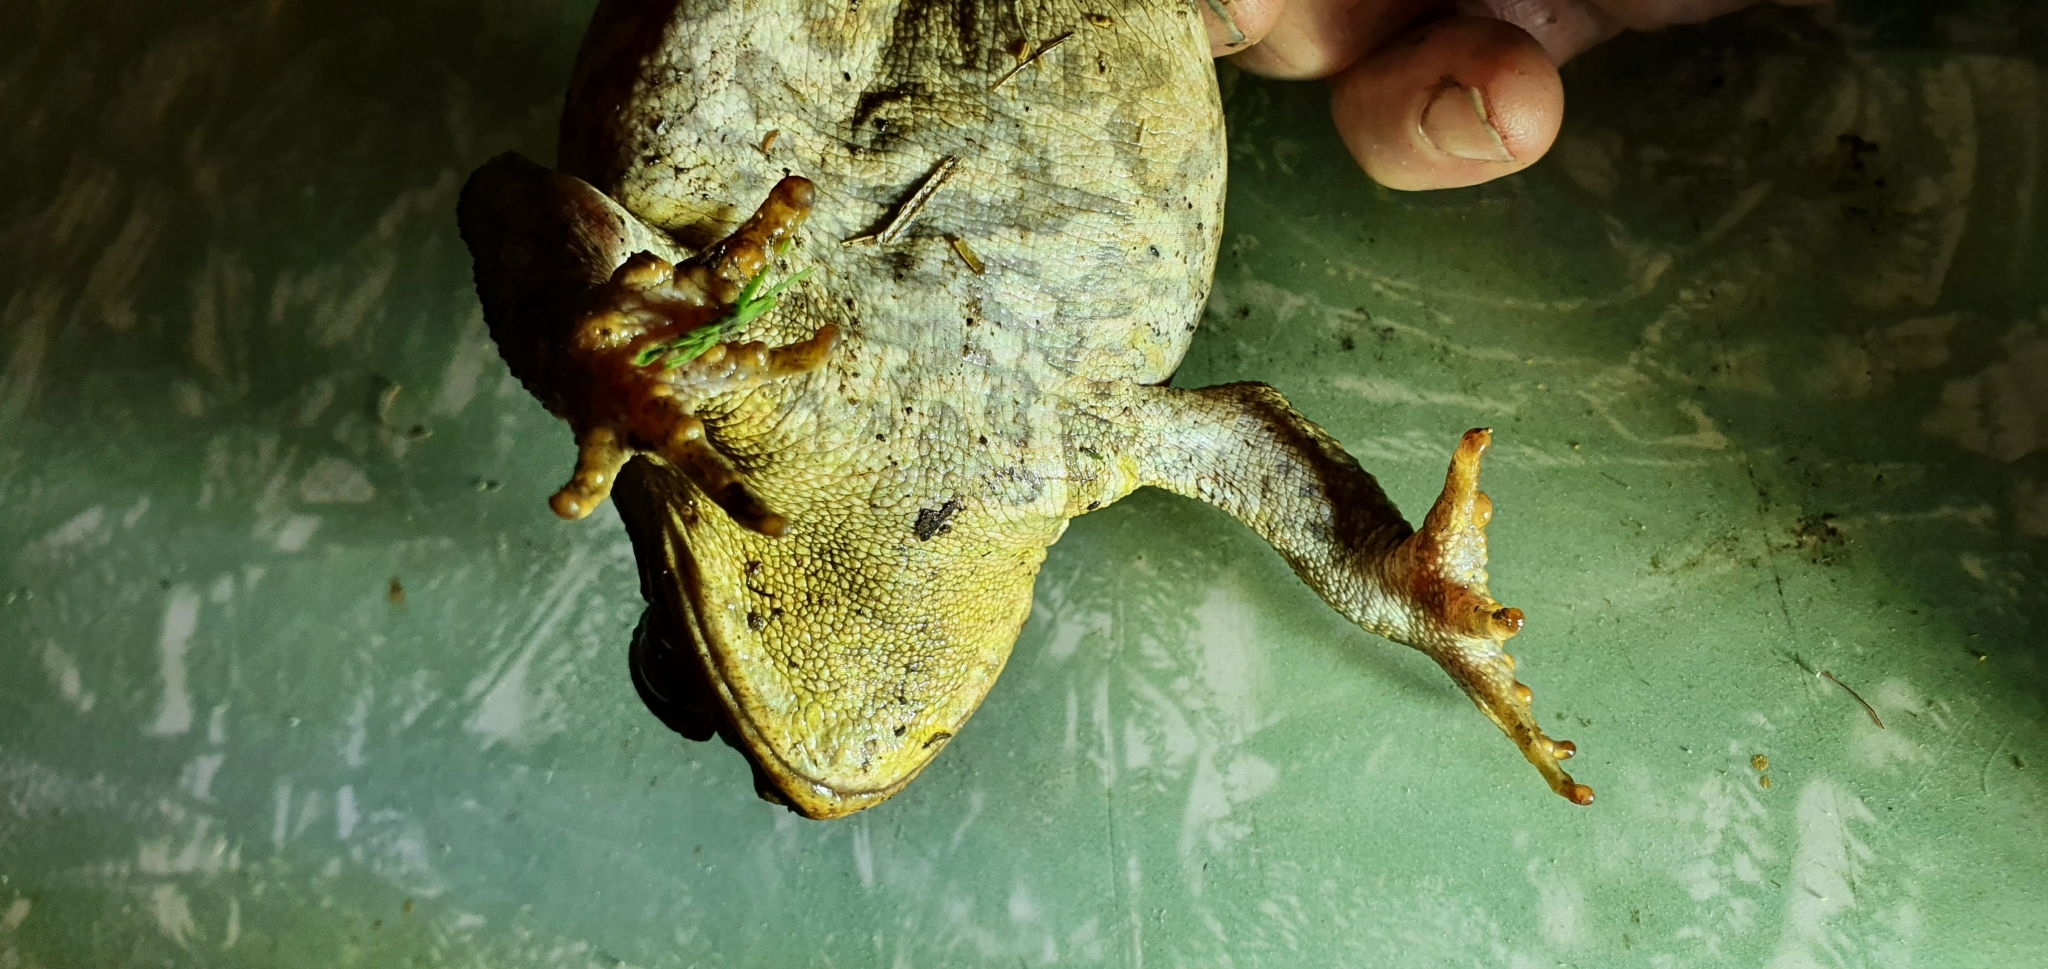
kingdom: Animalia
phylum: Chordata
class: Amphibia
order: Anura
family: Bufonidae
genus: Rhinella
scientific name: Rhinella marina
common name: Cane toad
